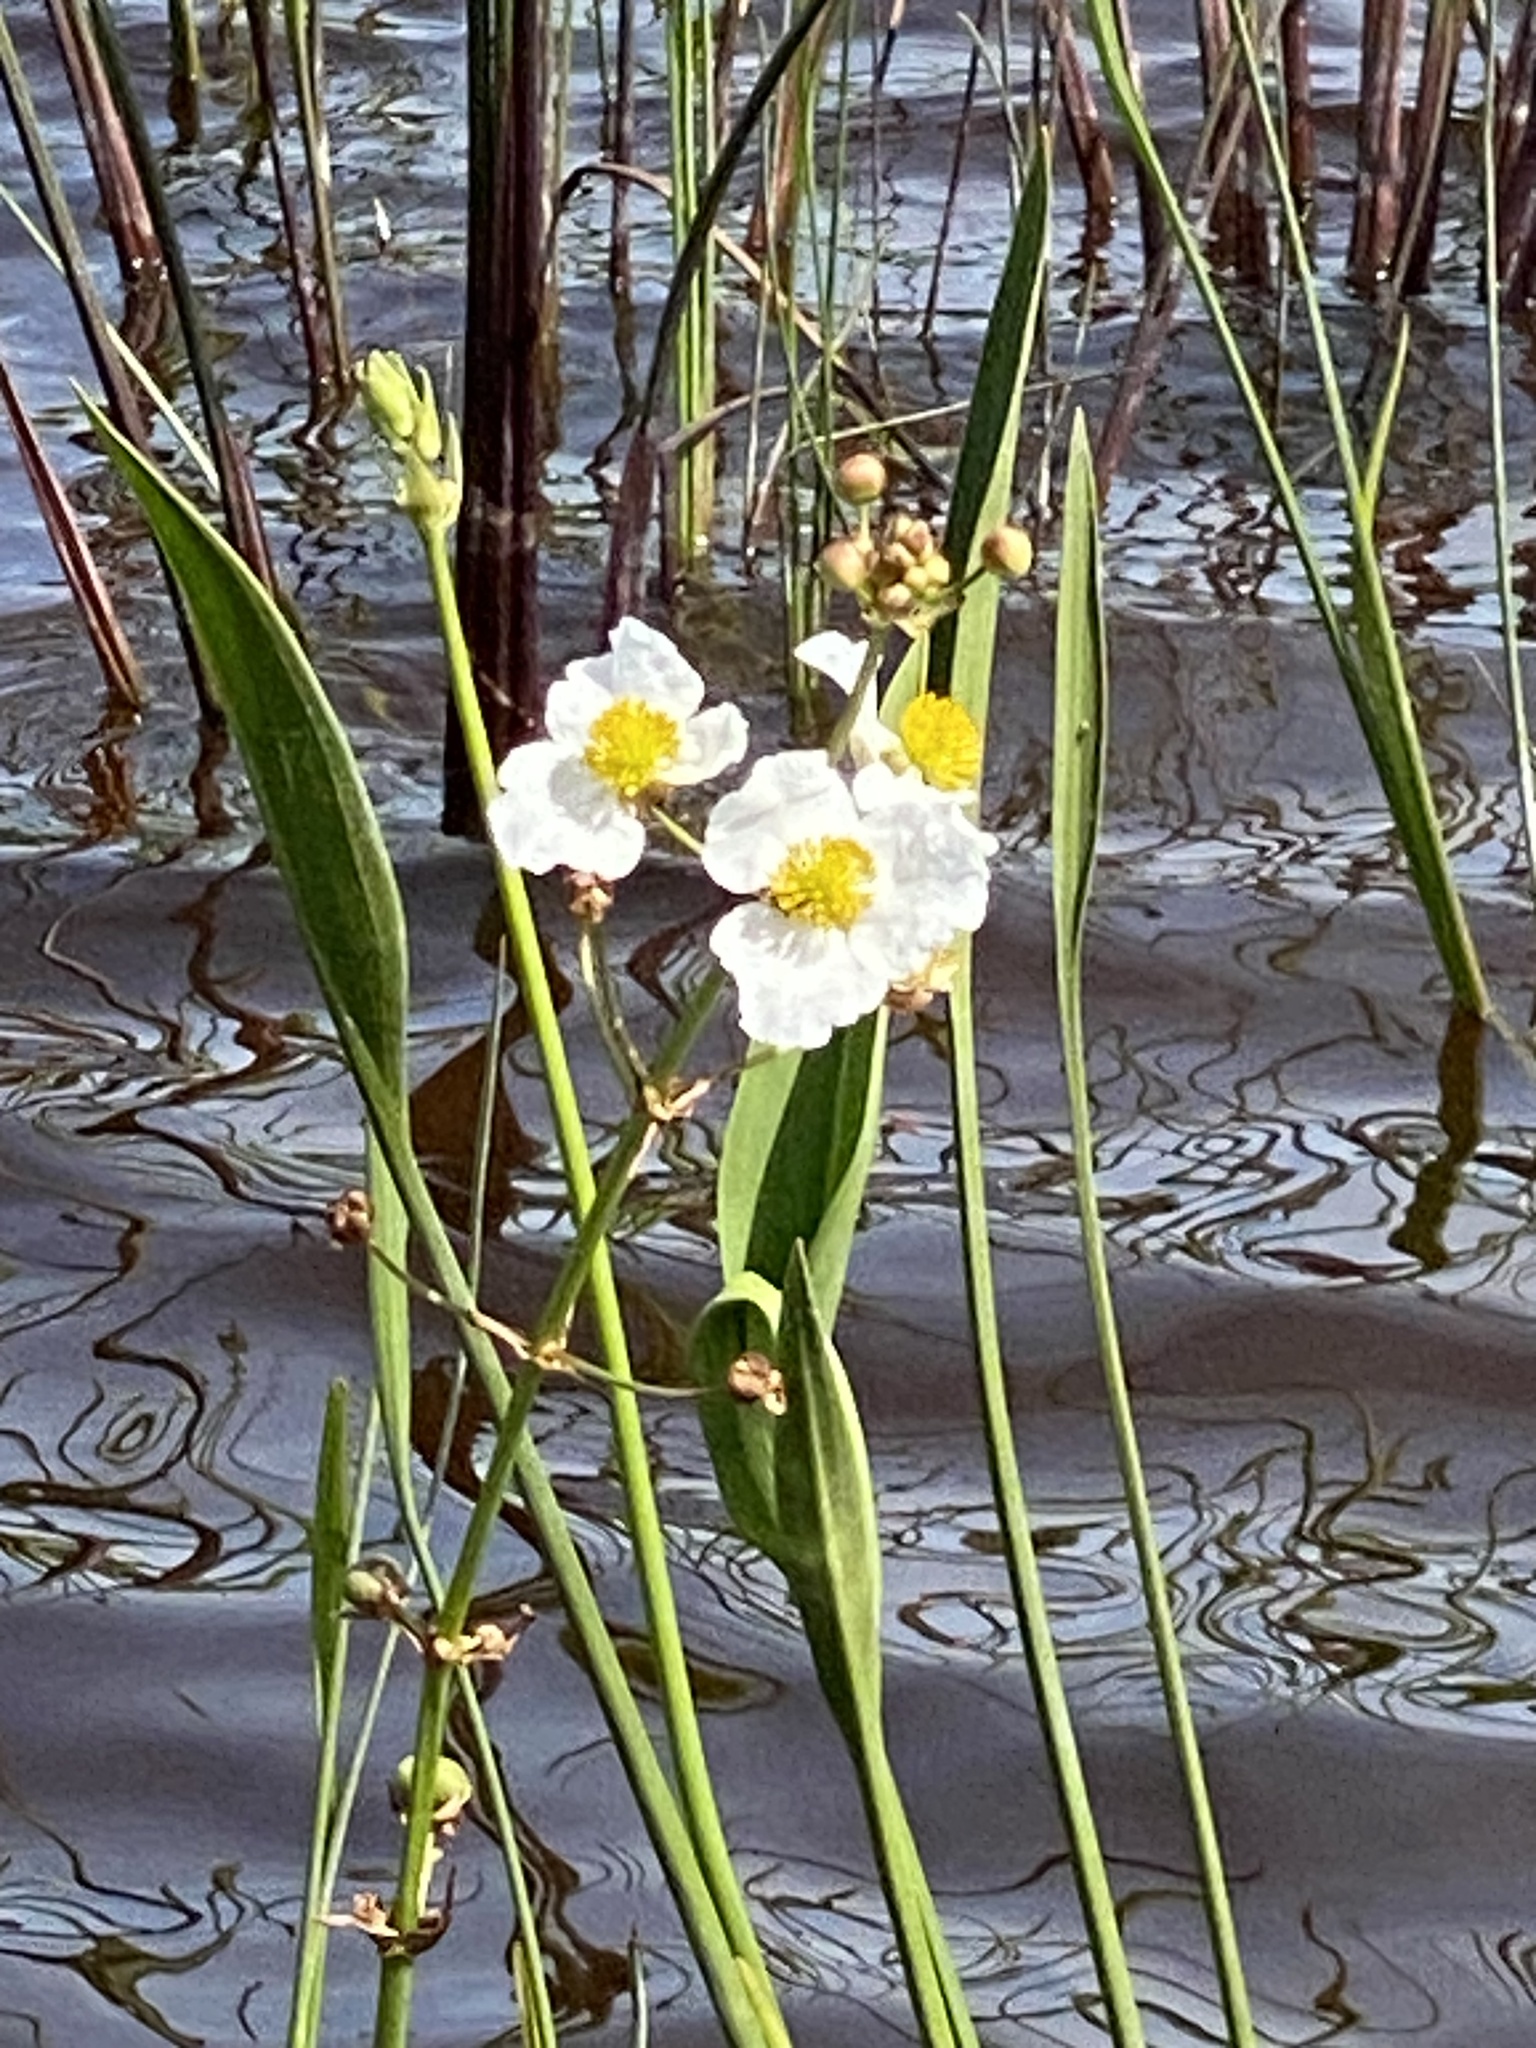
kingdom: Plantae
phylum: Tracheophyta
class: Liliopsida
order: Alismatales
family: Alismataceae
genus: Sagittaria
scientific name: Sagittaria lancifolia
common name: Lance-leaf arrowhead
